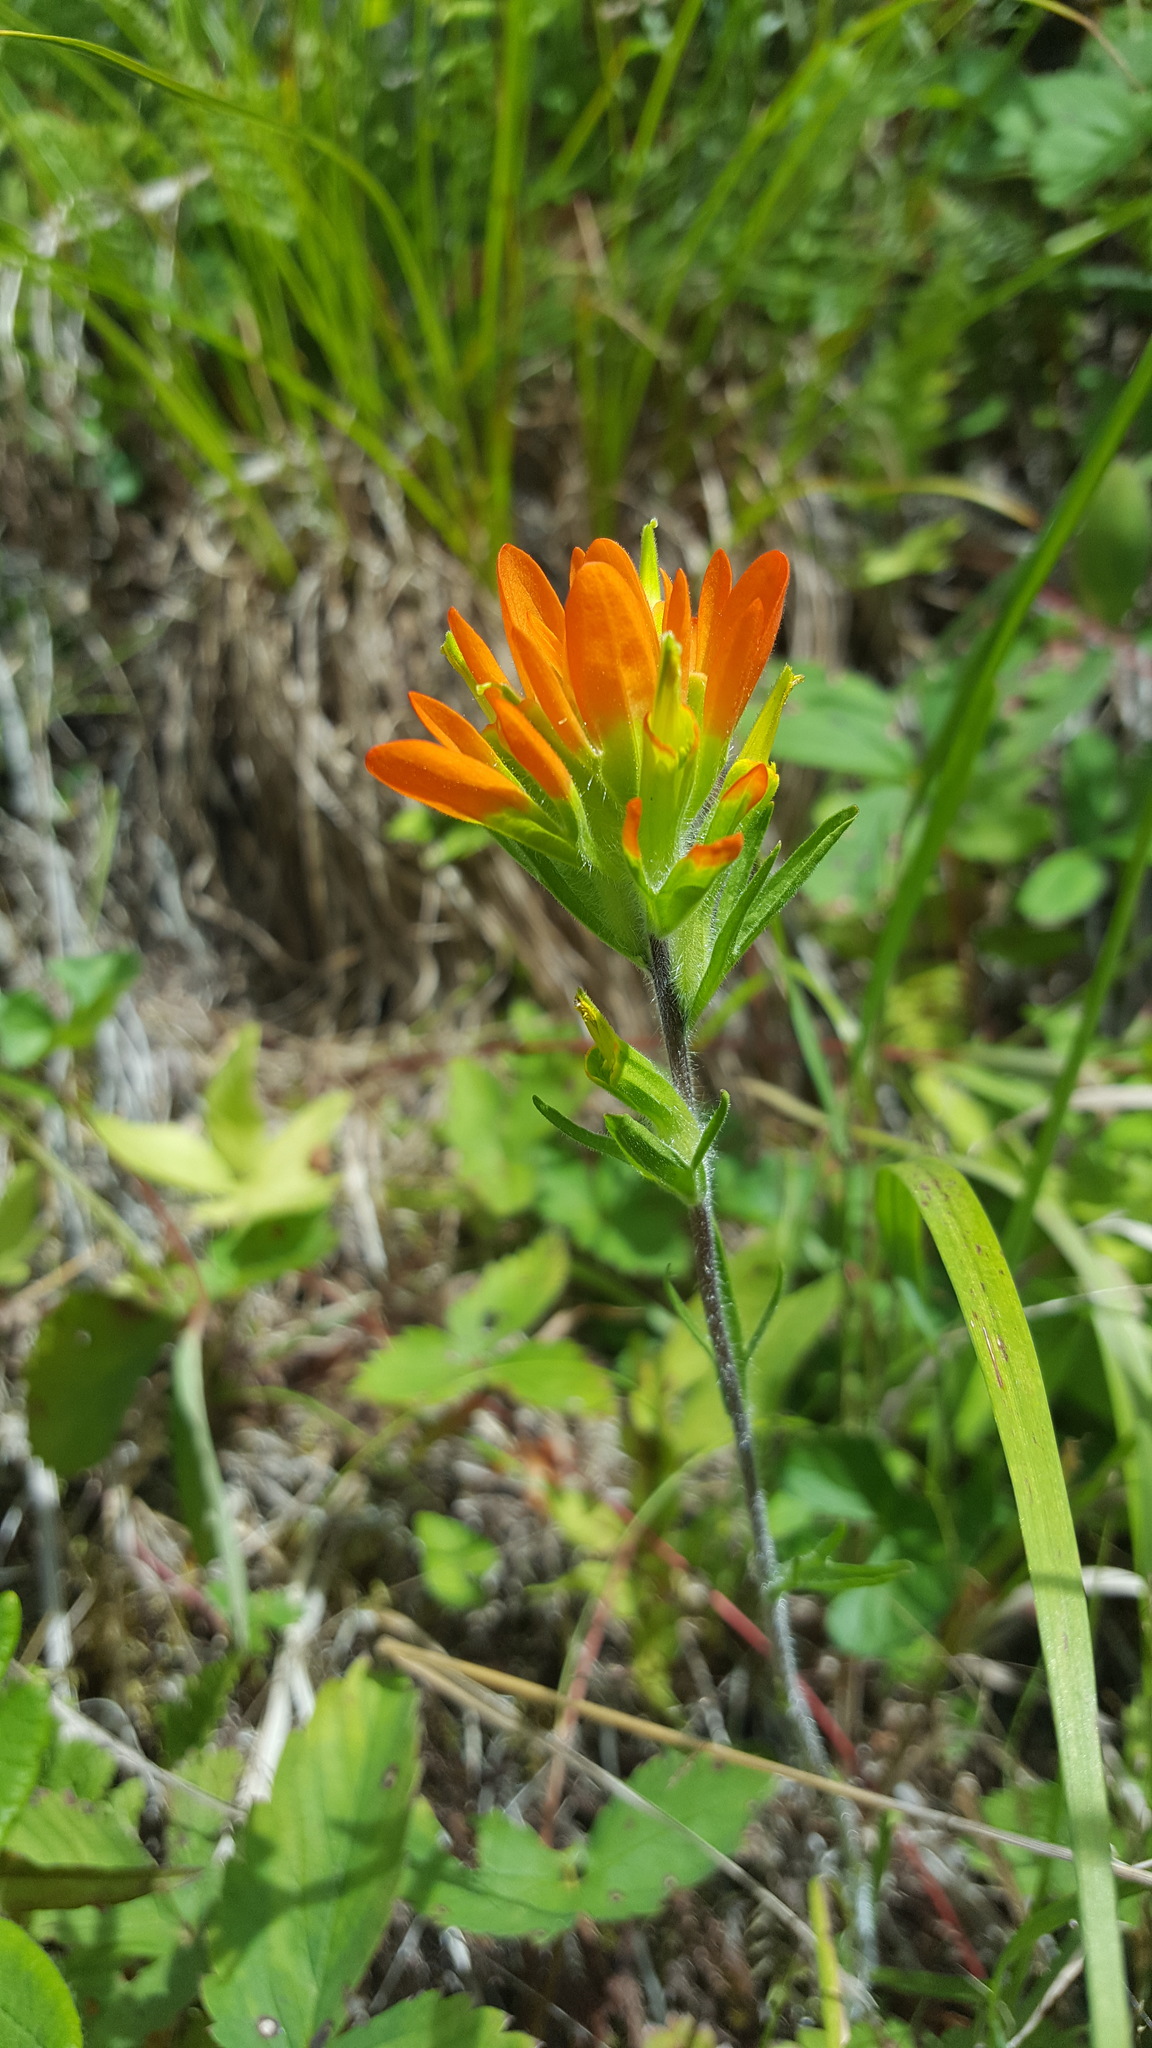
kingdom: Plantae
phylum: Tracheophyta
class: Magnoliopsida
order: Lamiales
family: Orobanchaceae
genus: Castilleja
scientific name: Castilleja coccinea
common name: Scarlet paintbrush
